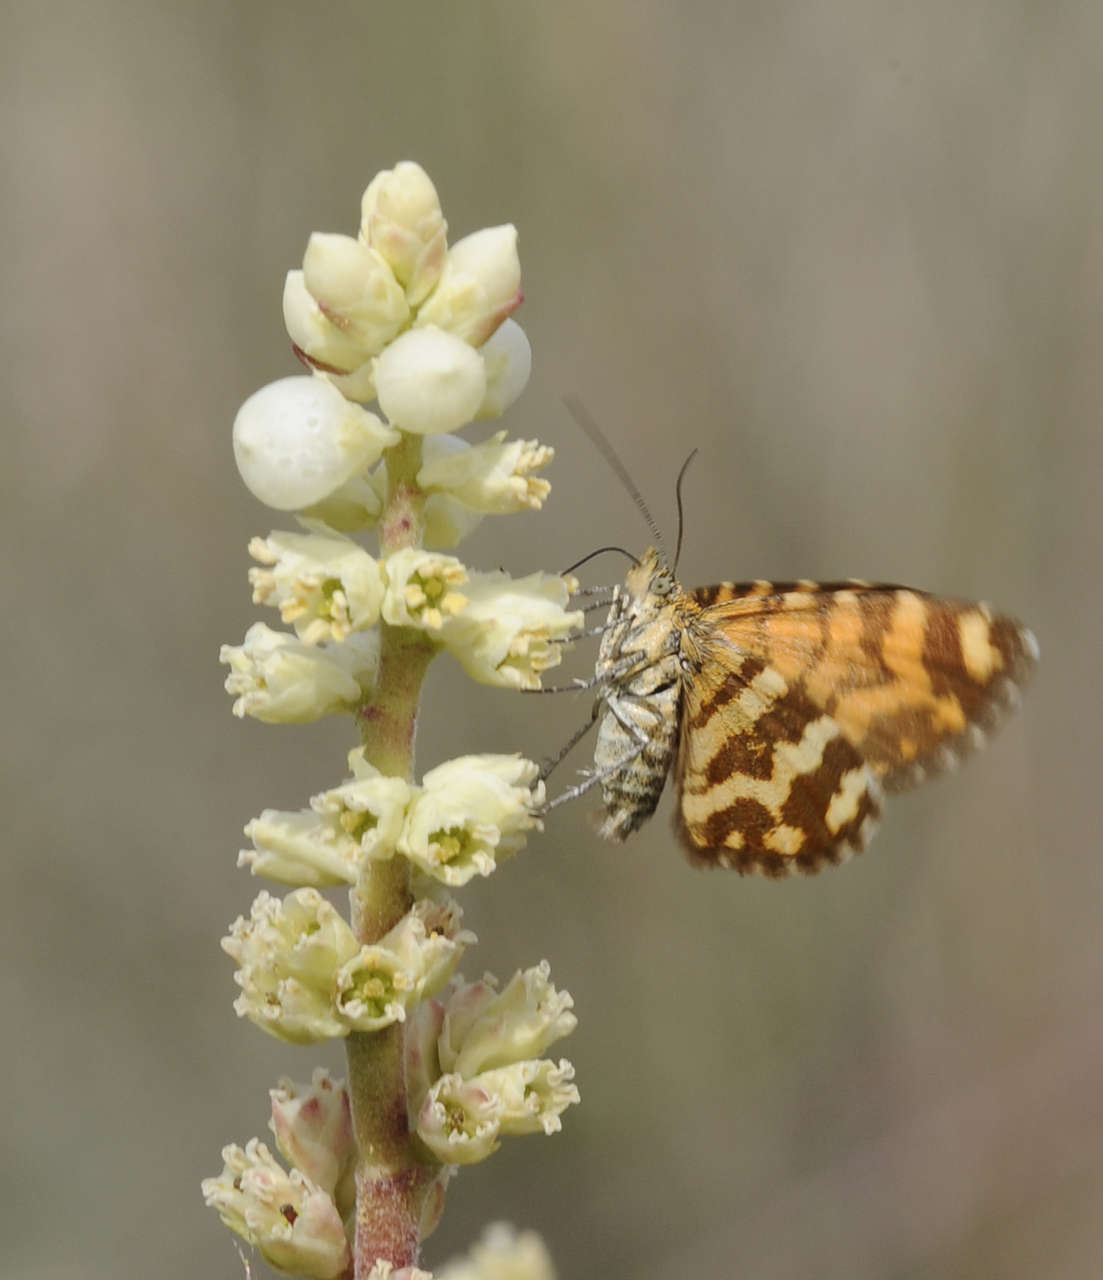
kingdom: Animalia
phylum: Arthropoda
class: Insecta
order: Lepidoptera
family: Geometridae
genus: Chrysolarentia
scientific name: Chrysolarentia chrysocyma
